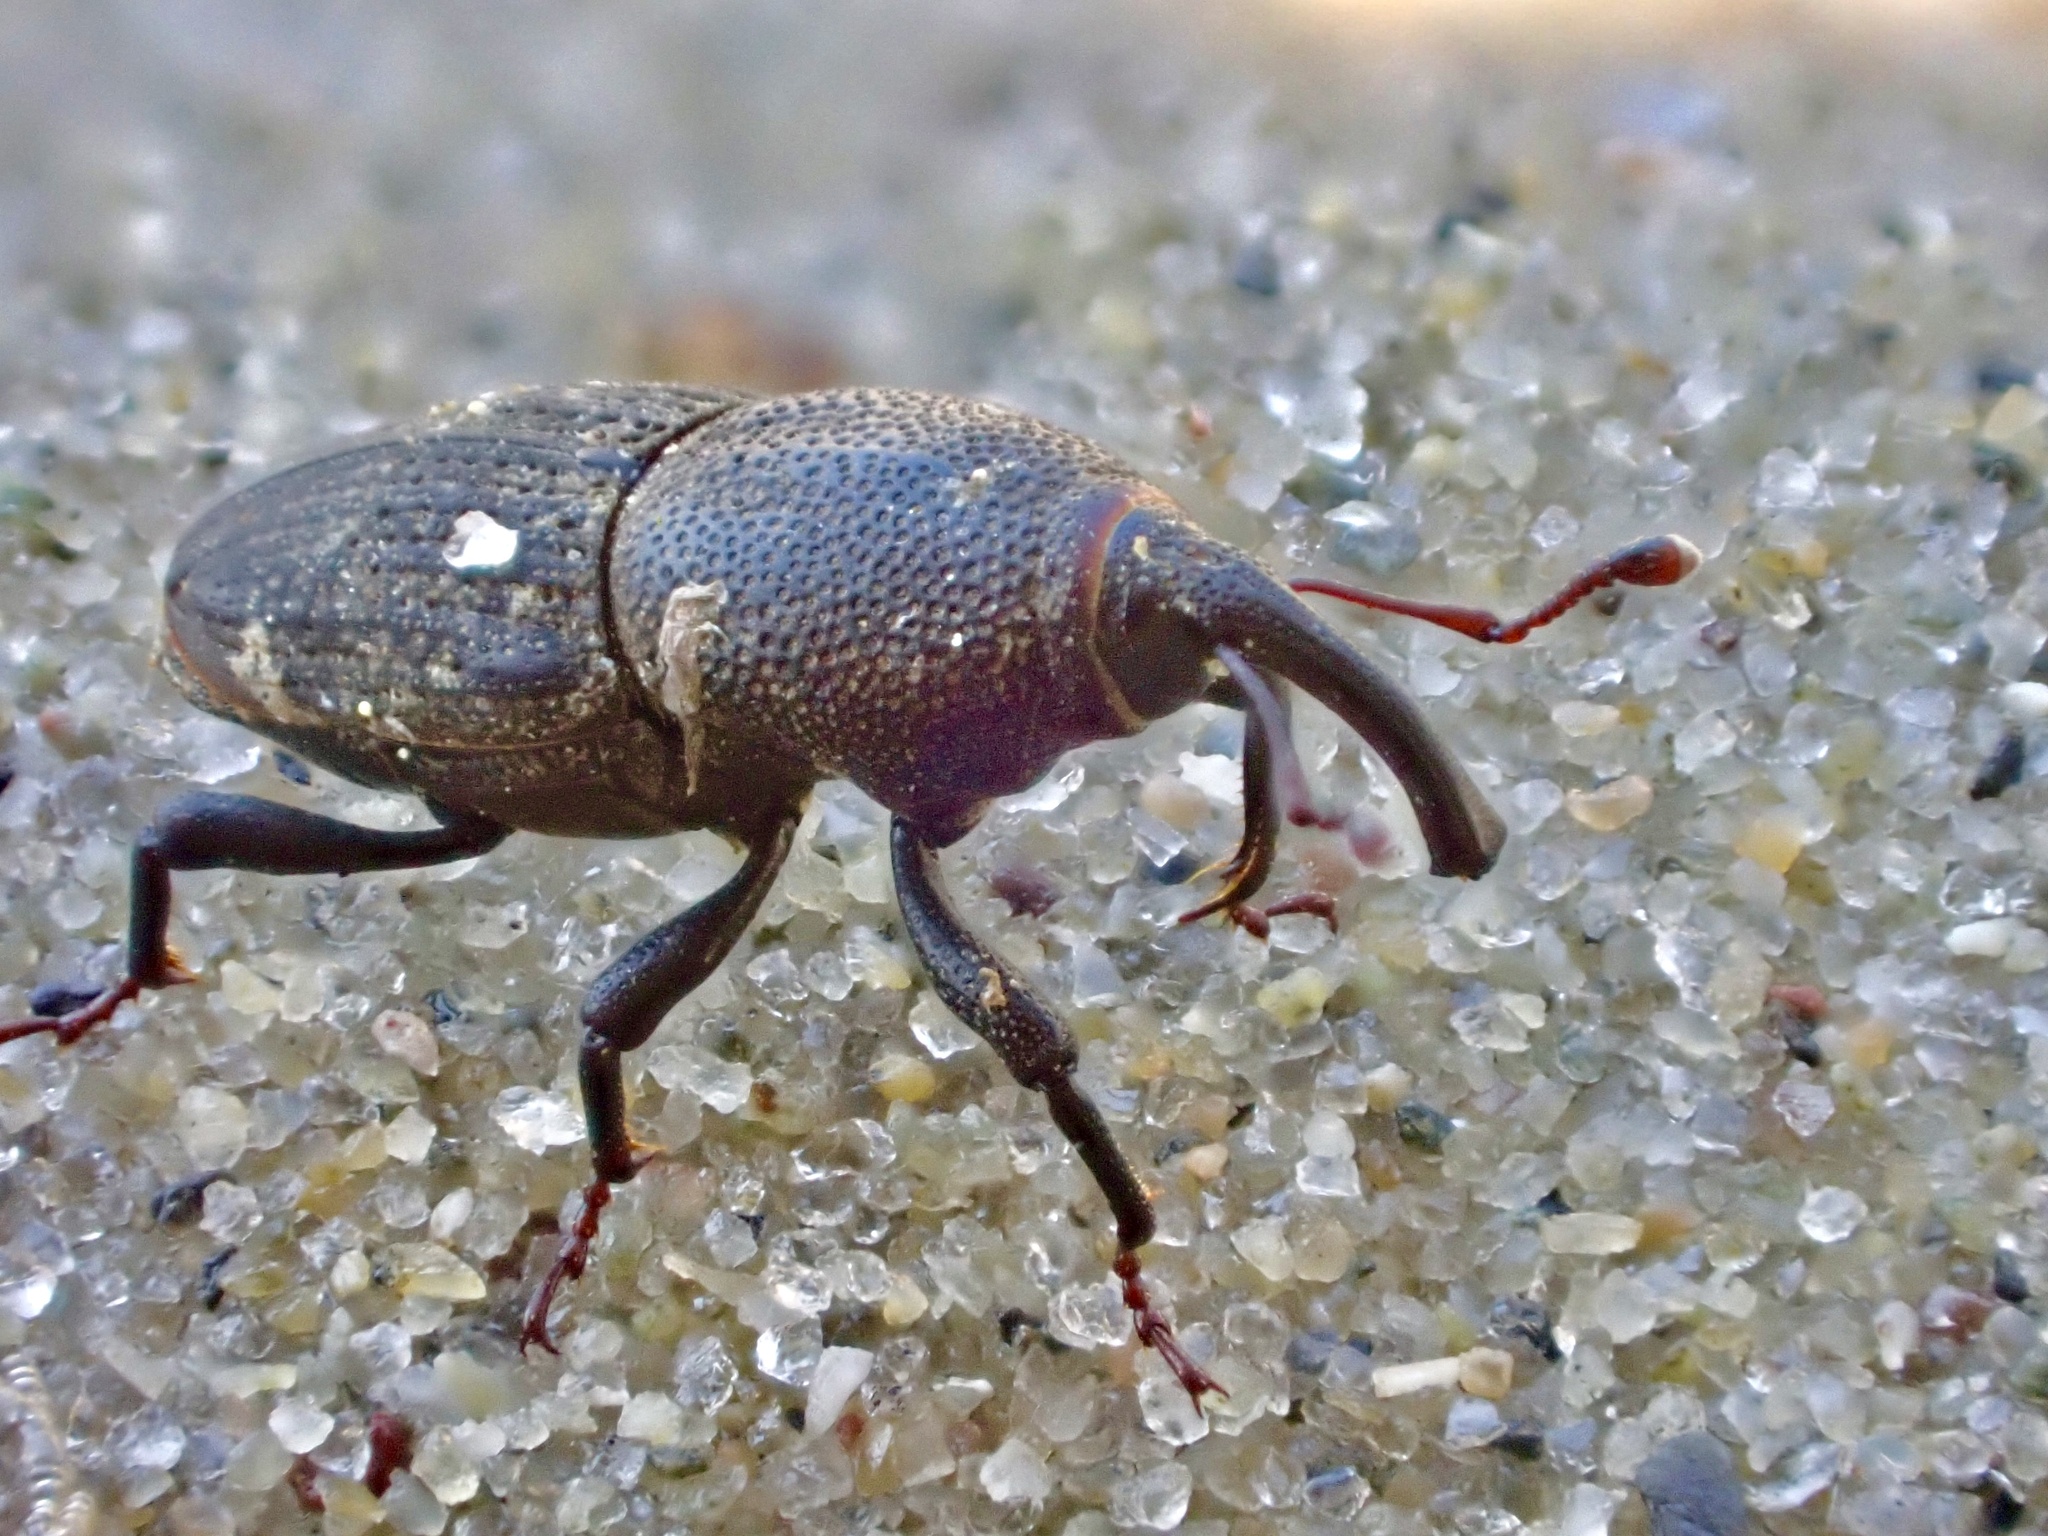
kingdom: Animalia
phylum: Arthropoda
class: Insecta
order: Coleoptera
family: Dryophthoridae
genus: Sphenophorus
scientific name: Sphenophorus interstitialis
